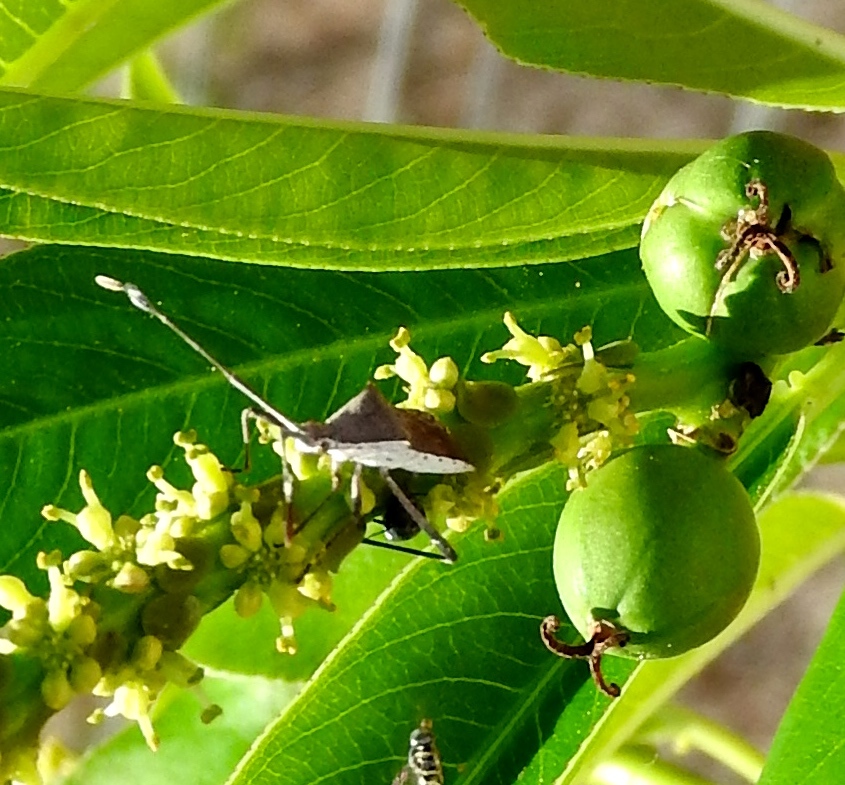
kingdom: Animalia
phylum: Arthropoda
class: Insecta
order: Hemiptera
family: Coreidae
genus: Chariesterus
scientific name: Chariesterus
